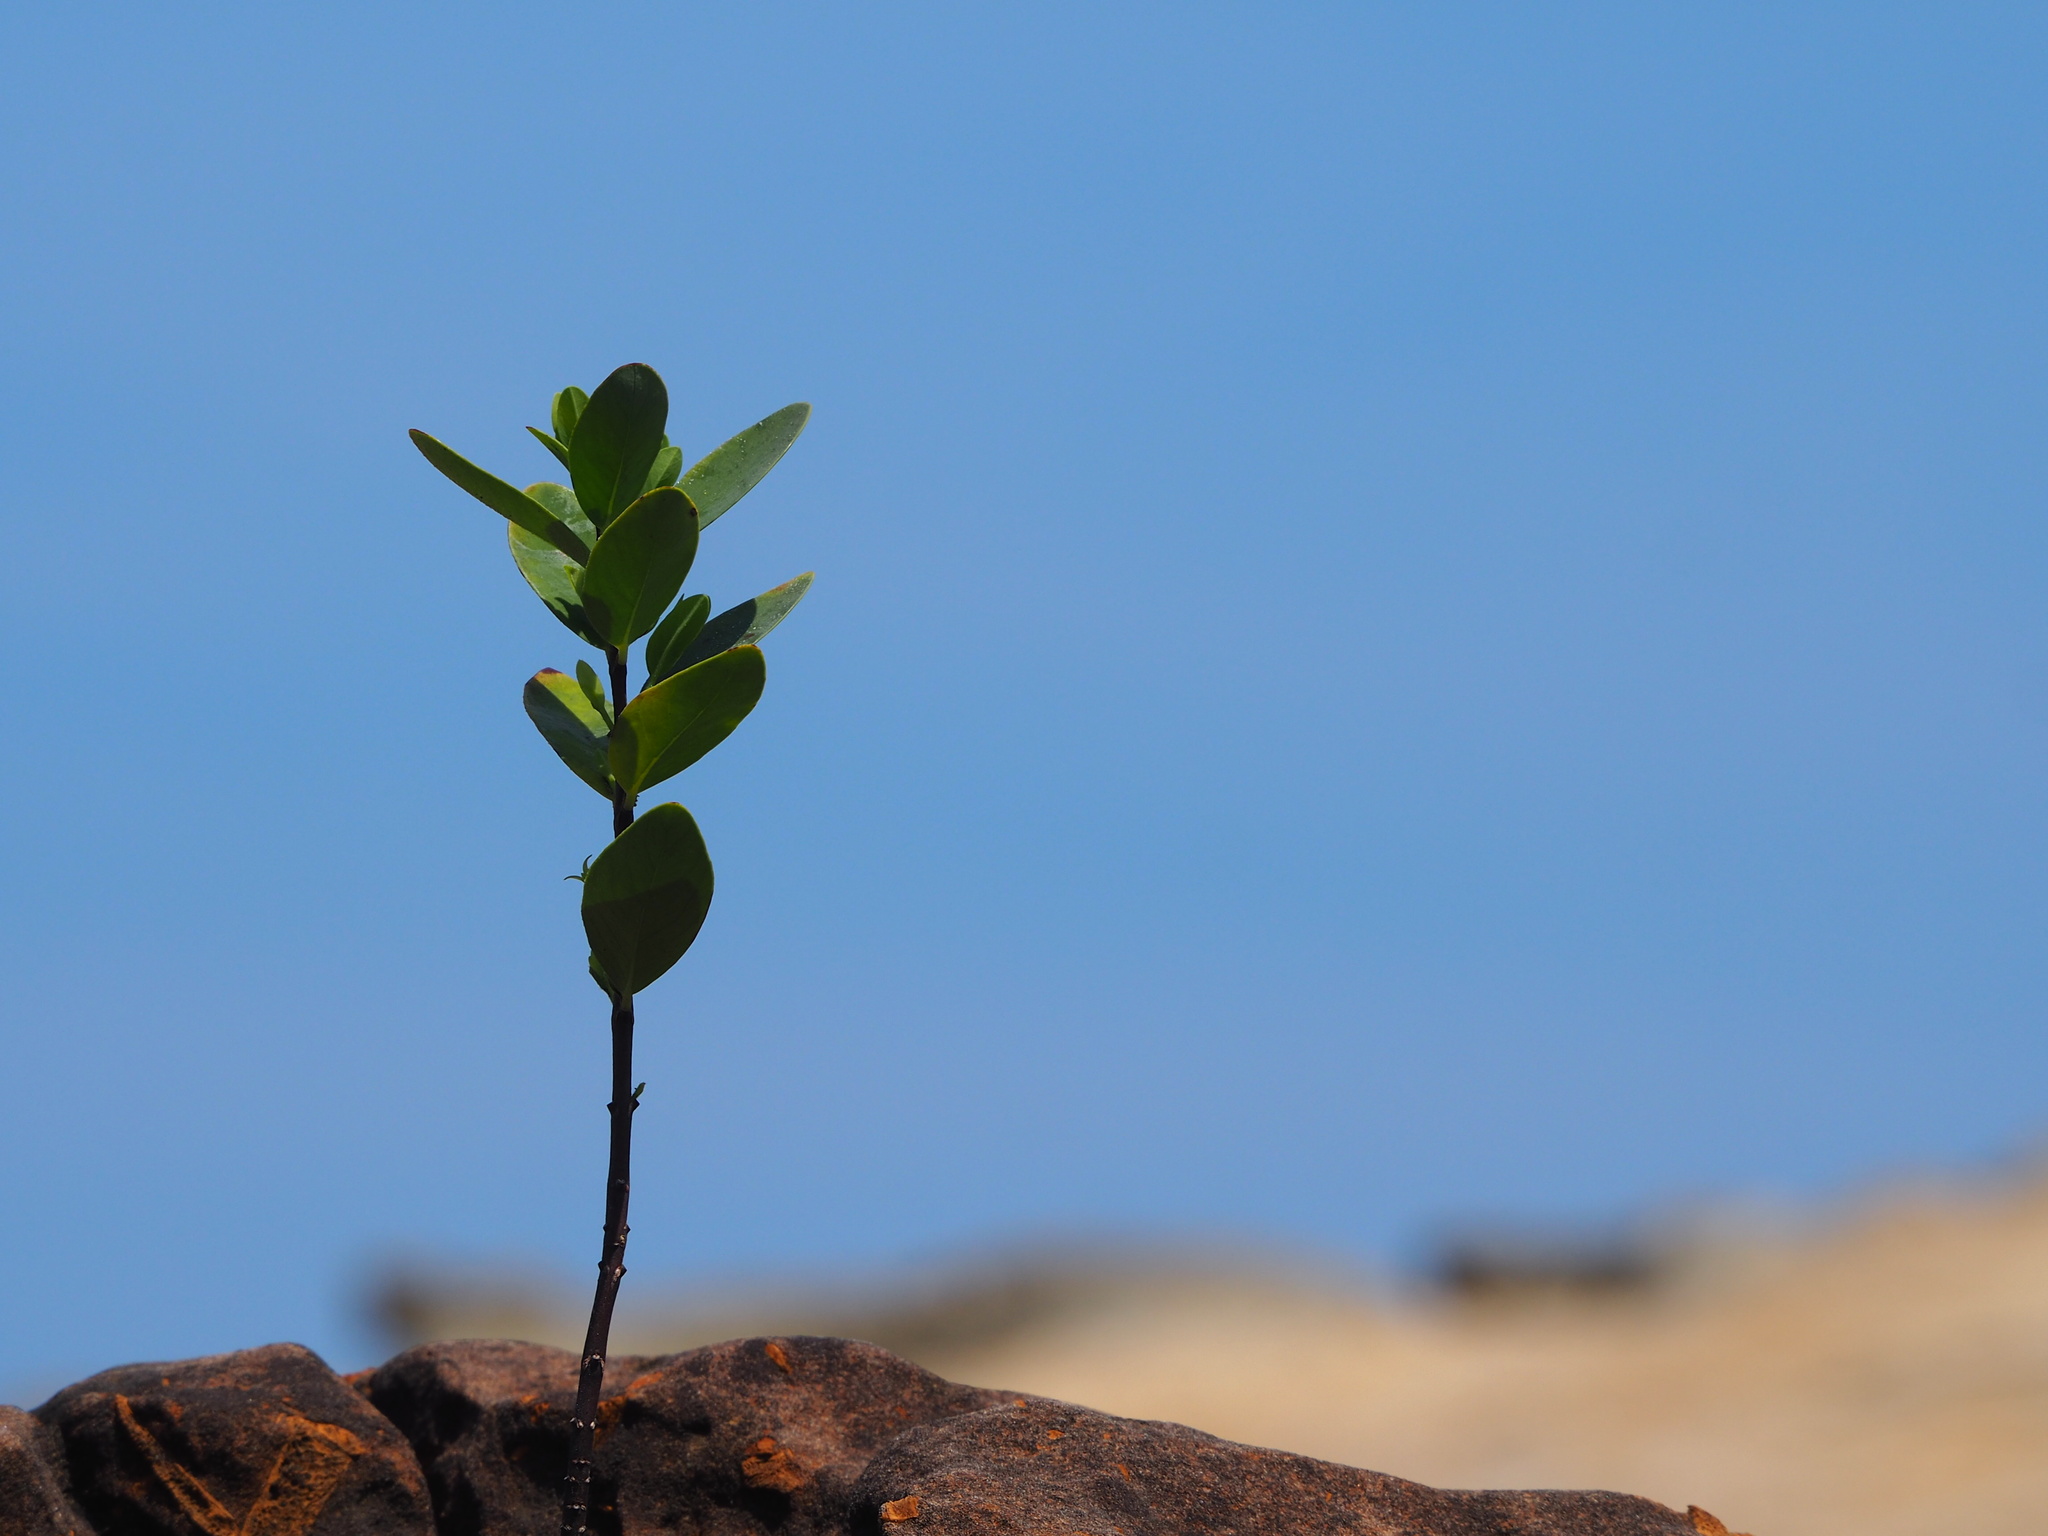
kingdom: Plantae
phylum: Tracheophyta
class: Magnoliopsida
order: Malvales
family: Thymelaeaceae
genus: Wikstroemia
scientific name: Wikstroemia indica
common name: Tiebush
